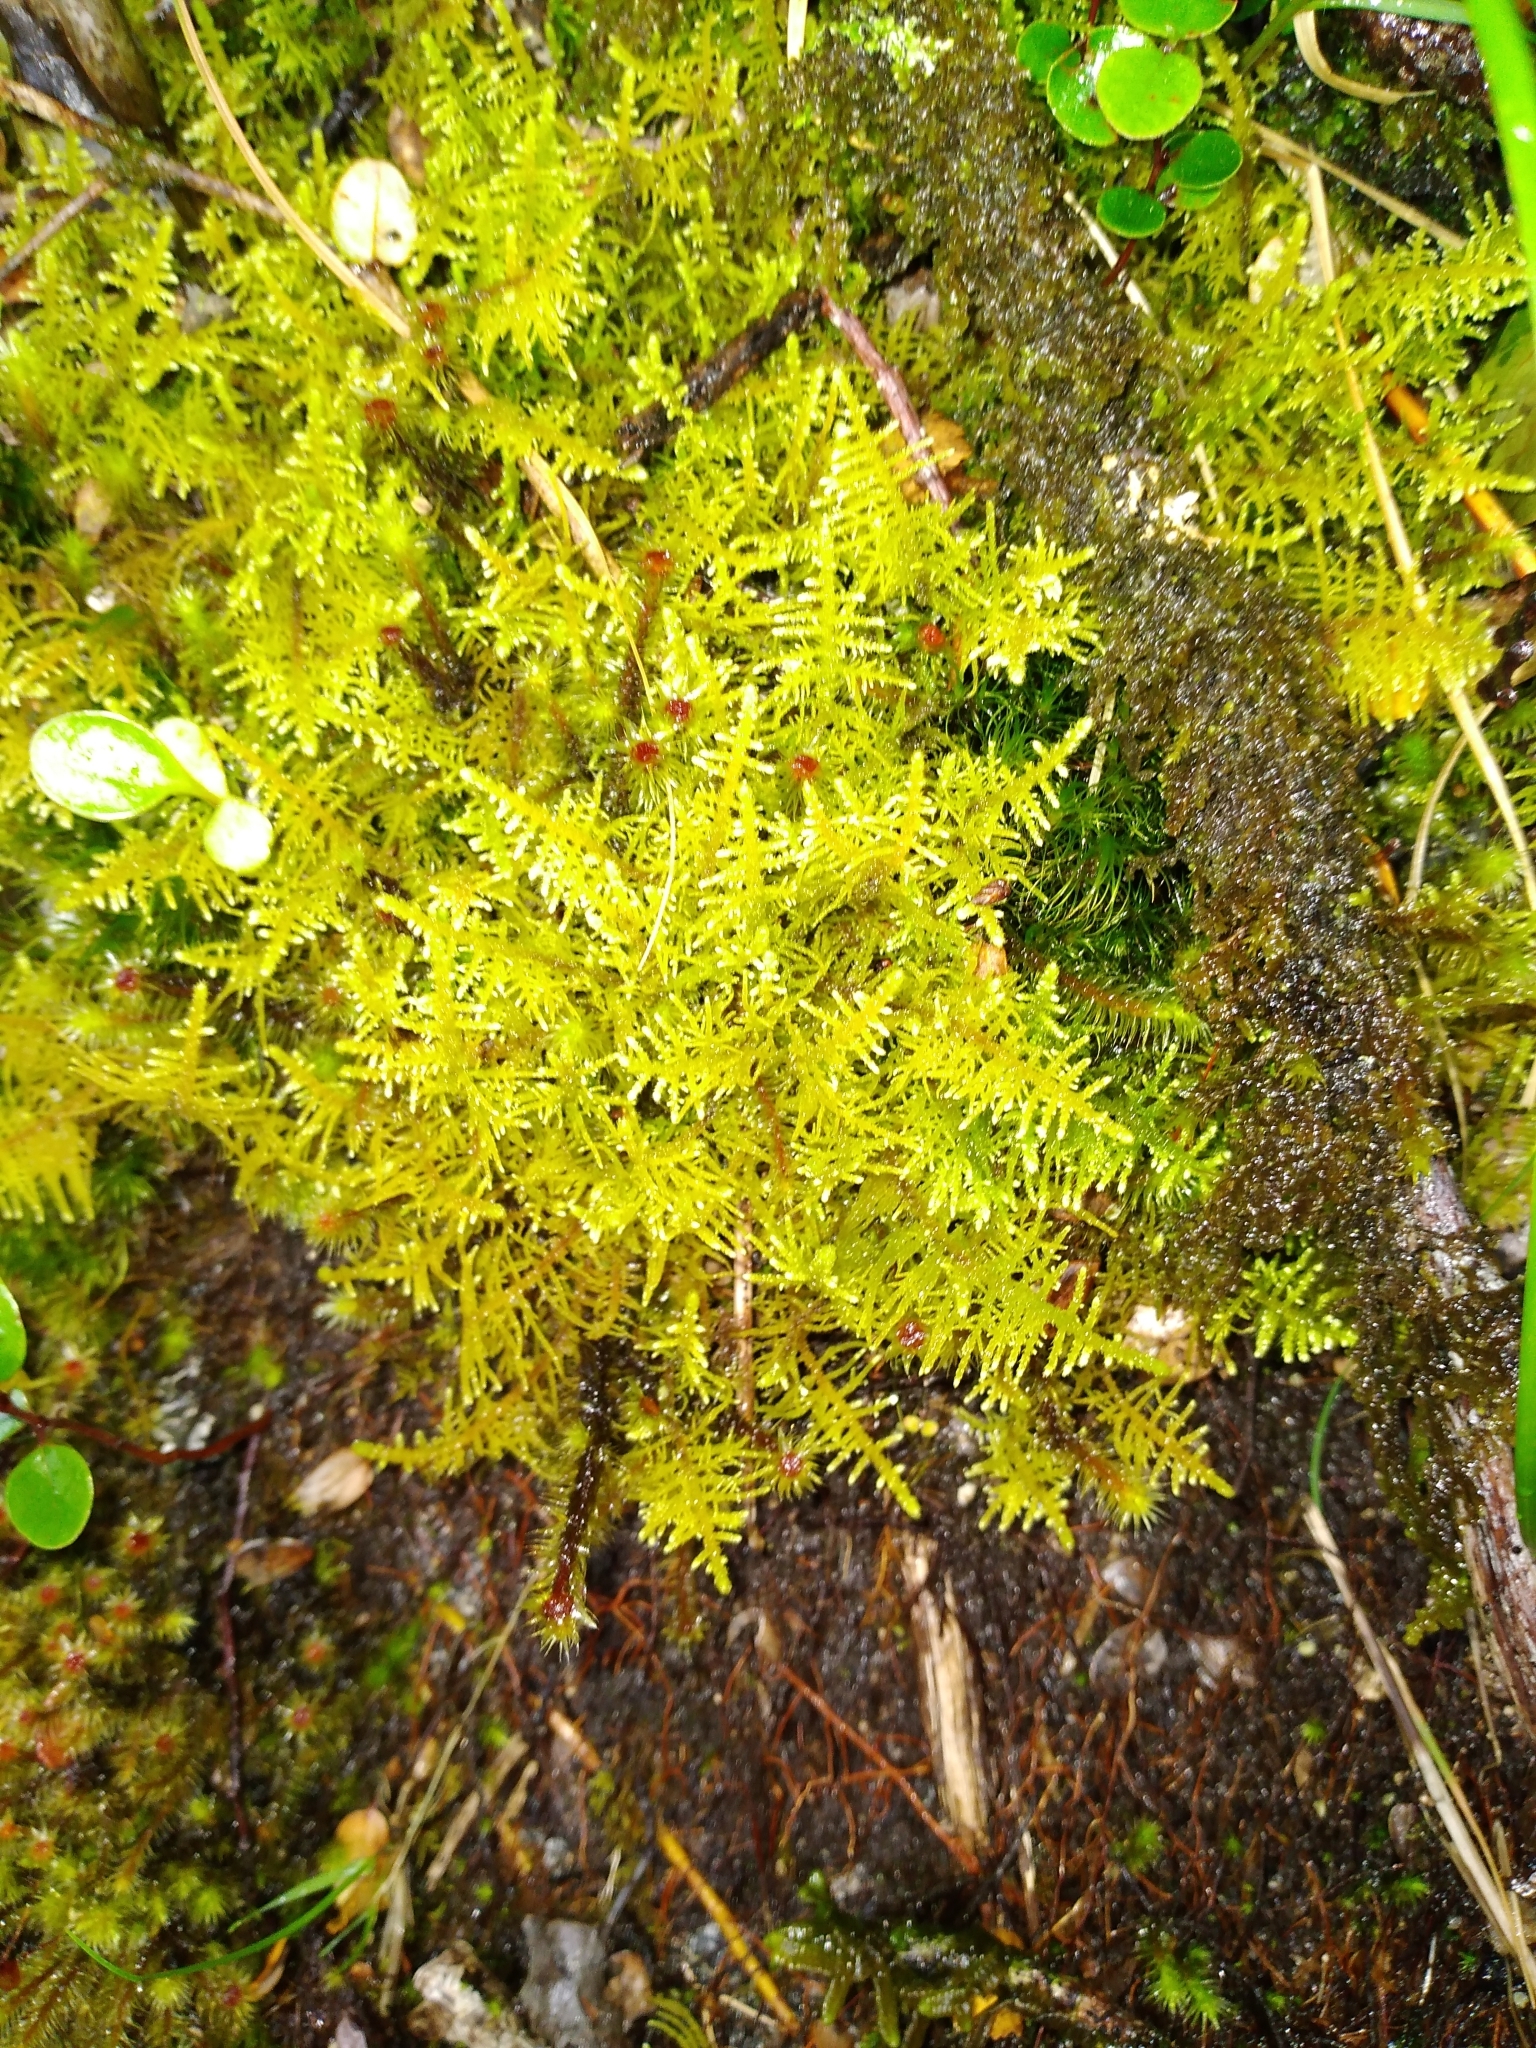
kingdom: Plantae
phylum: Bryophyta
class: Bryopsida
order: Hypnales
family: Thuidiaceae
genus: Thuidiopsis
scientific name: Thuidiopsis furfurosa
